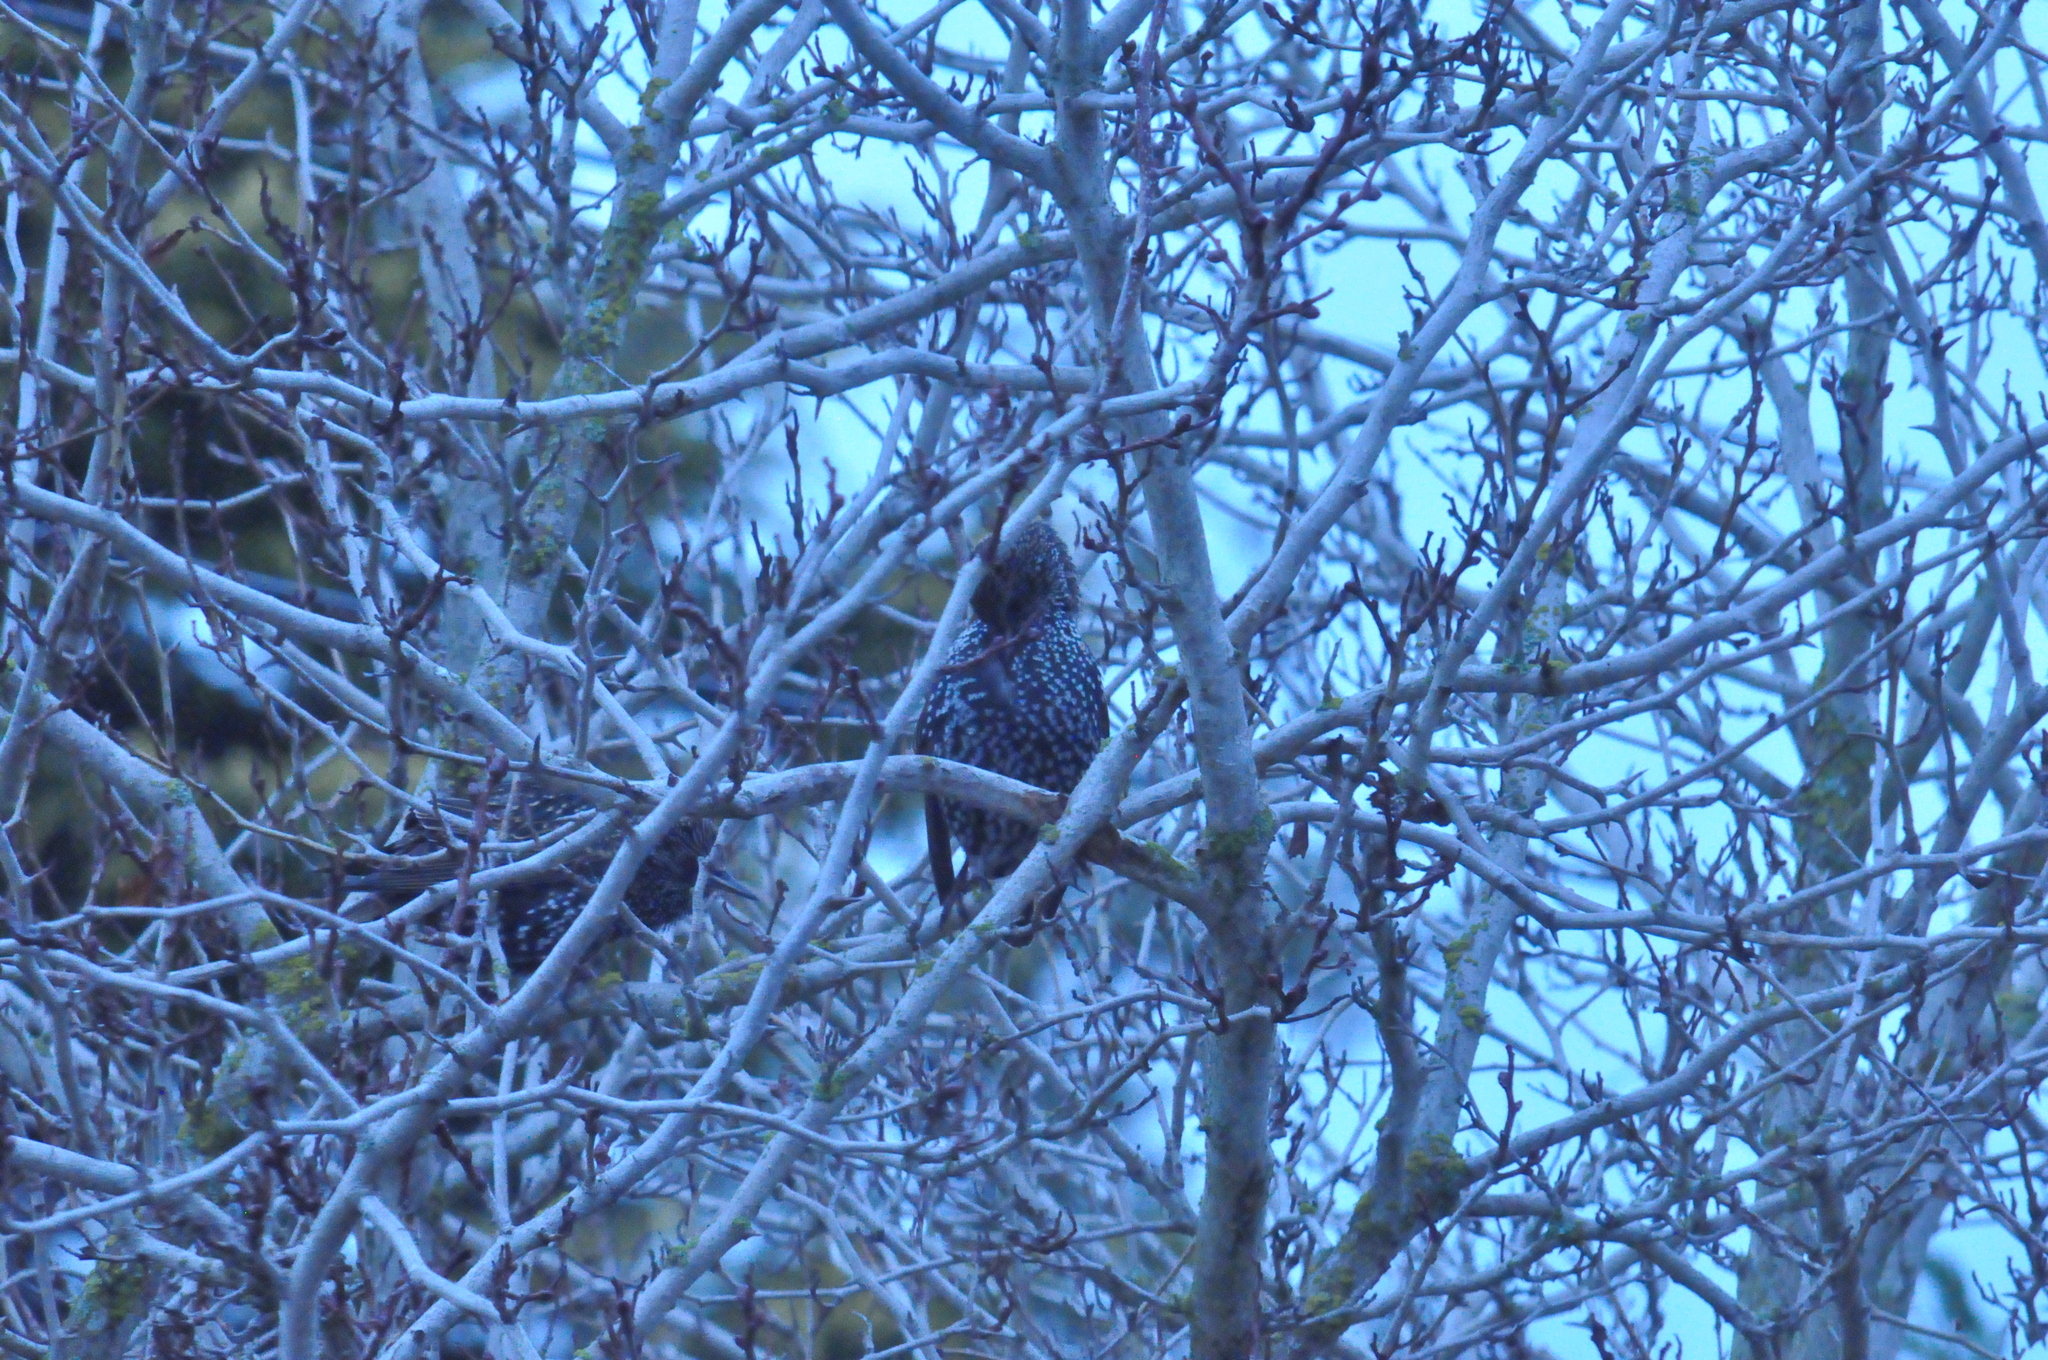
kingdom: Animalia
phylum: Chordata
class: Aves
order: Passeriformes
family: Sturnidae
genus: Sturnus
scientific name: Sturnus vulgaris
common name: Common starling
